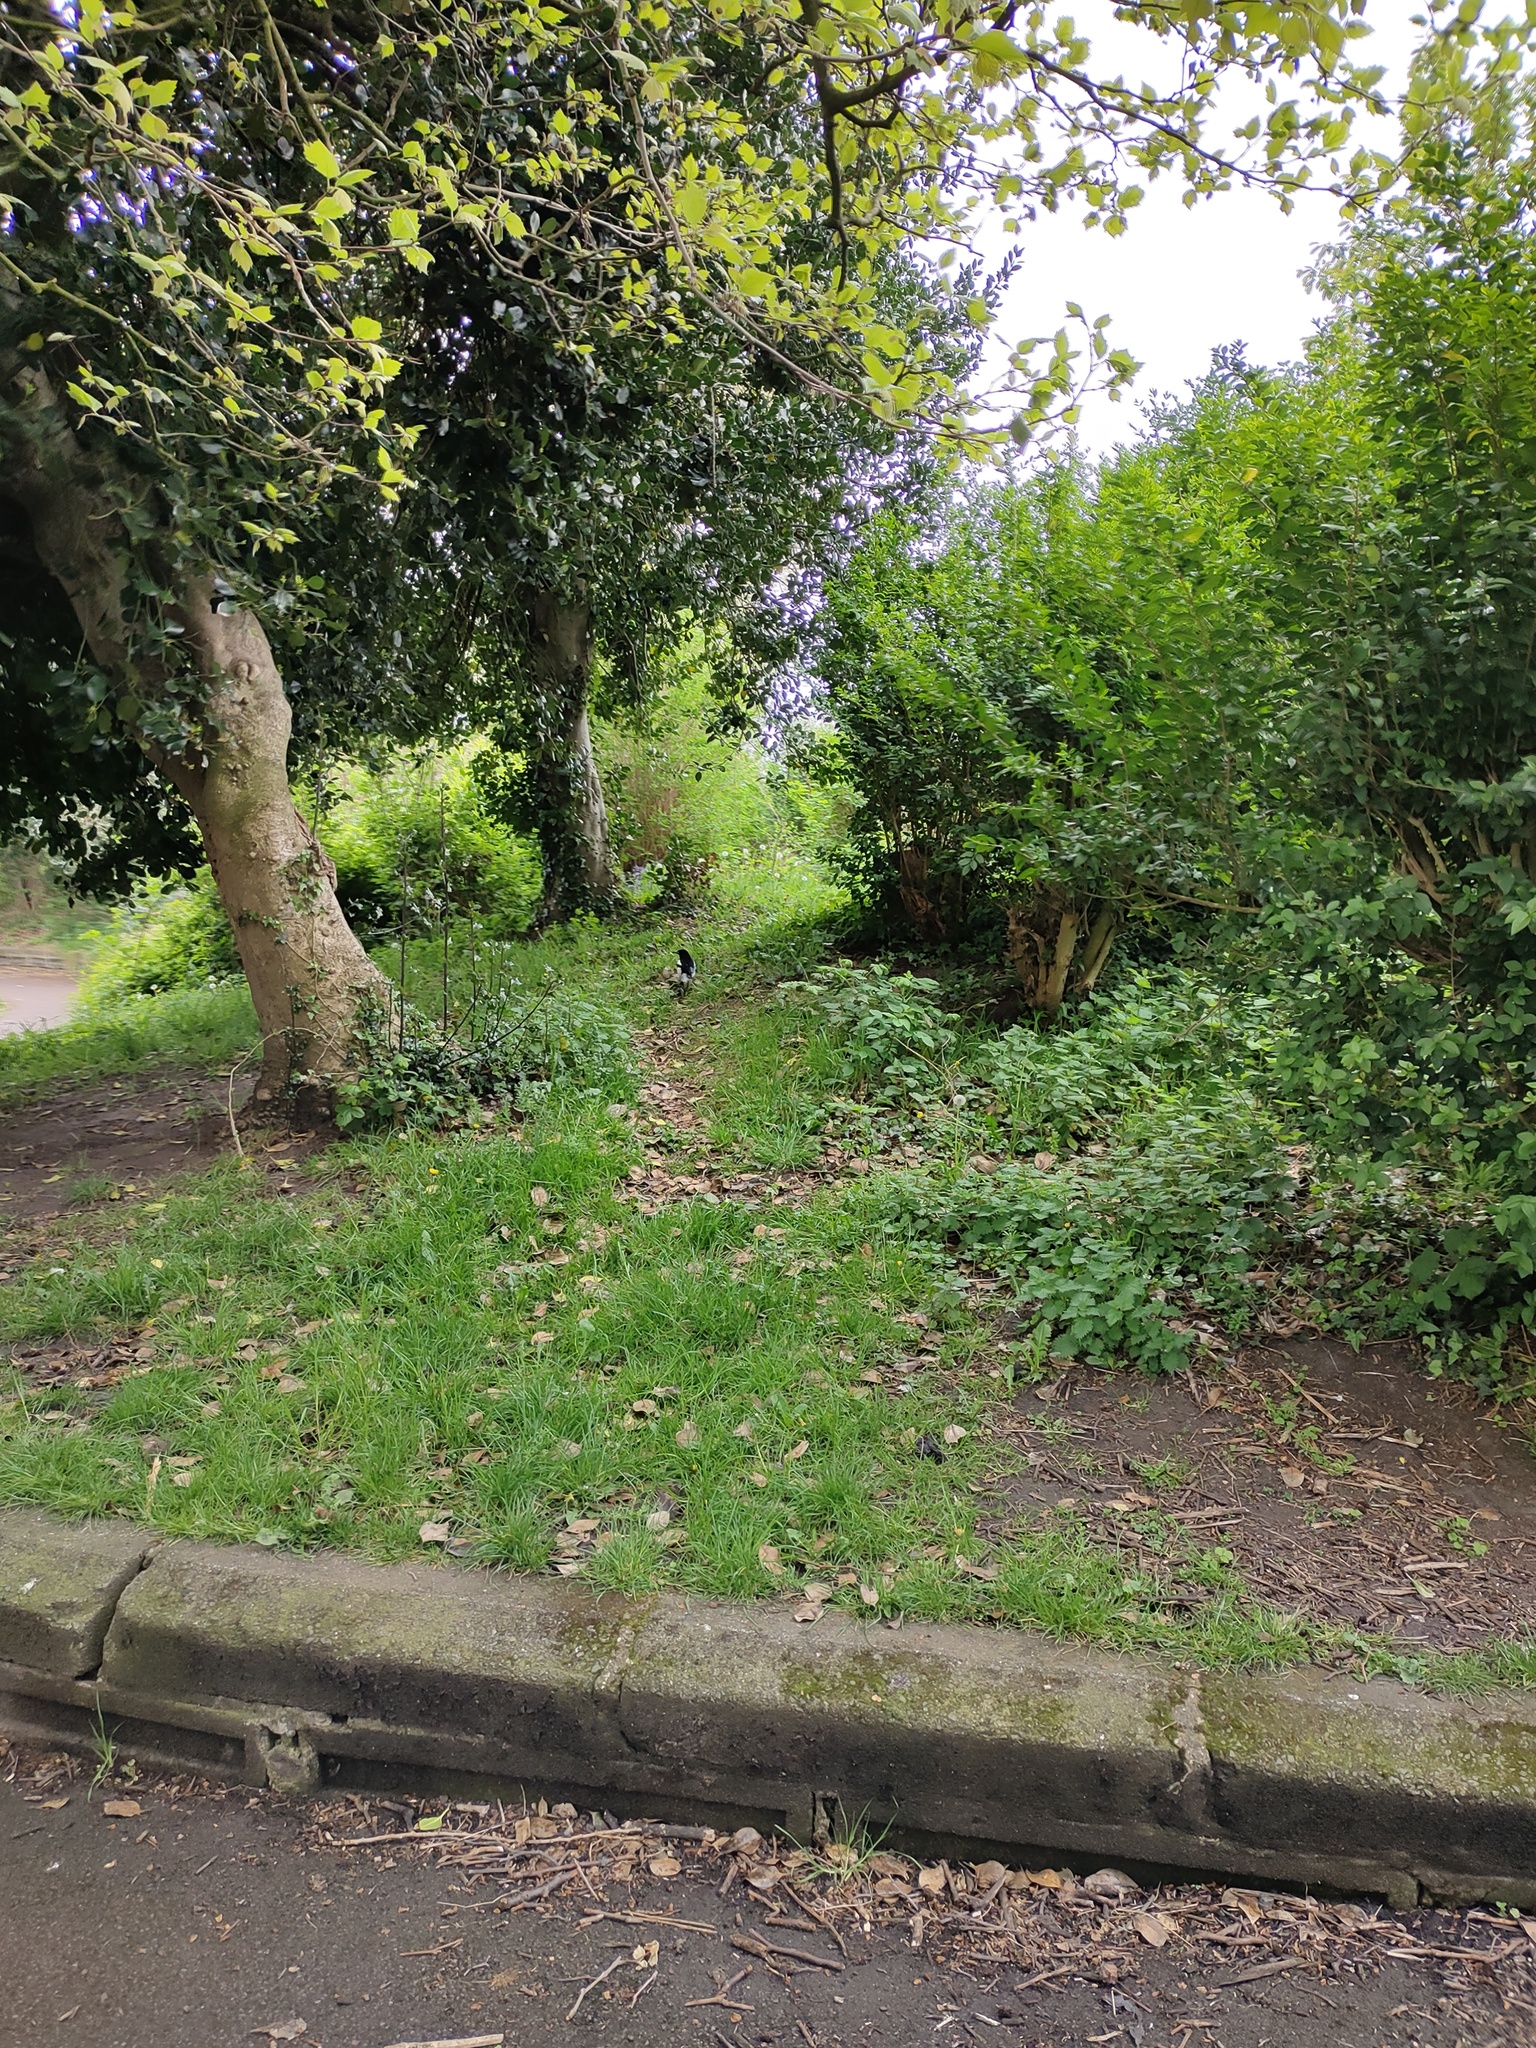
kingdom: Animalia
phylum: Chordata
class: Aves
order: Passeriformes
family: Corvidae
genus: Pica
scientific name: Pica pica
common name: Eurasian magpie
